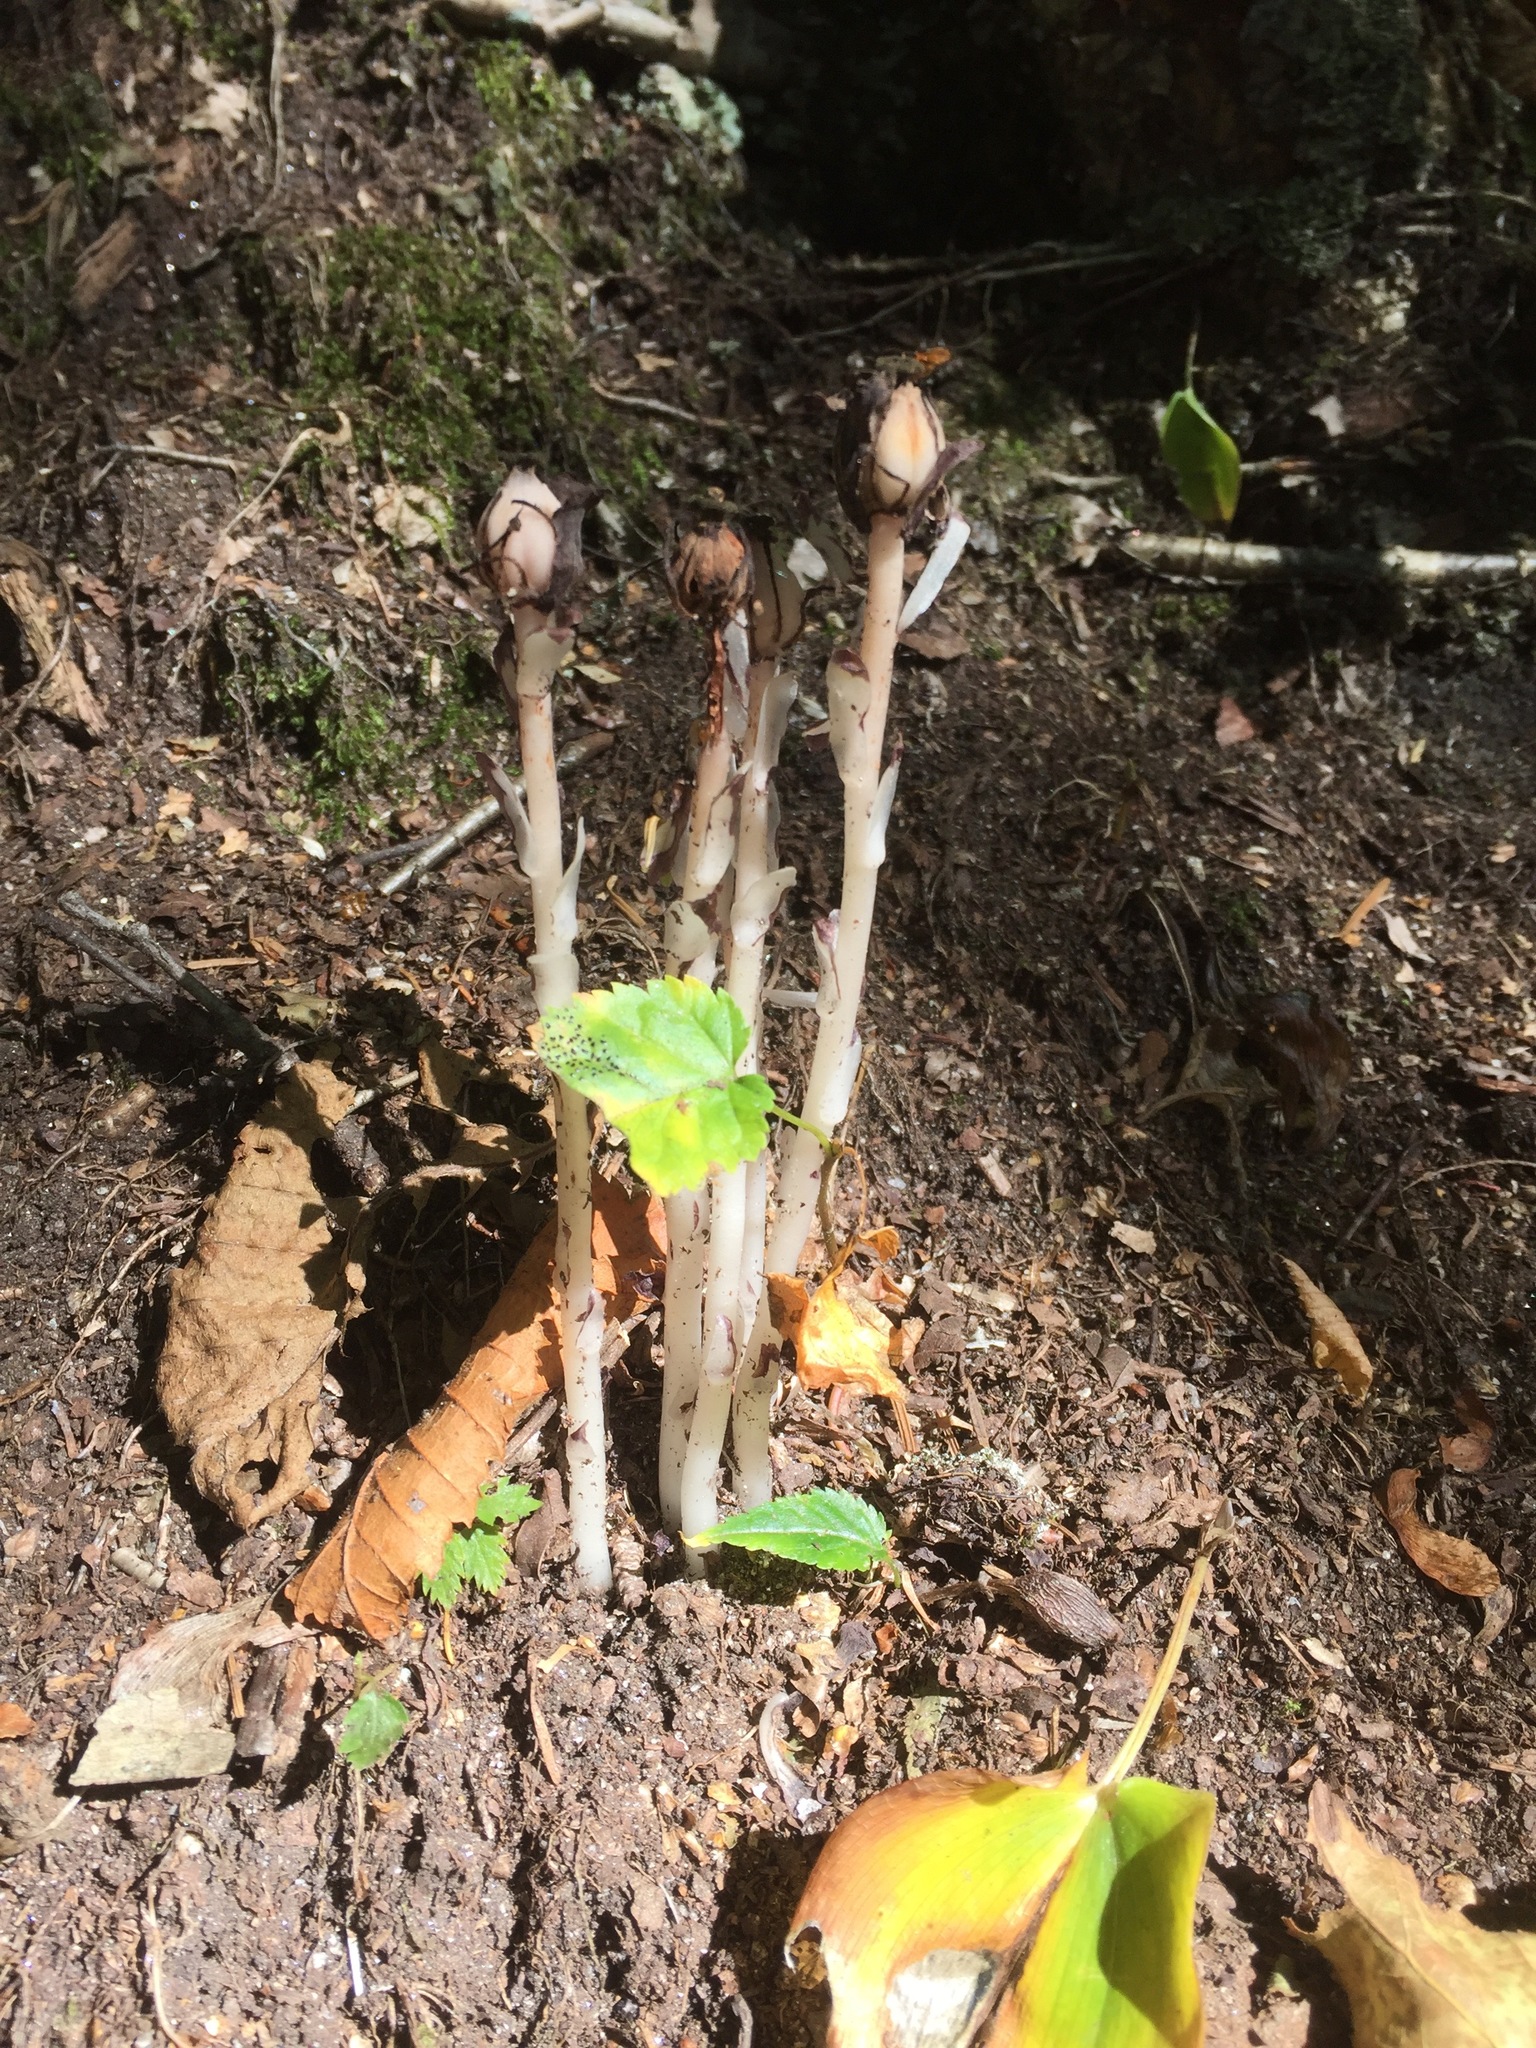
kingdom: Plantae
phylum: Tracheophyta
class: Magnoliopsida
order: Ericales
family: Ericaceae
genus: Monotropa
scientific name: Monotropa uniflora
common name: Convulsion root
